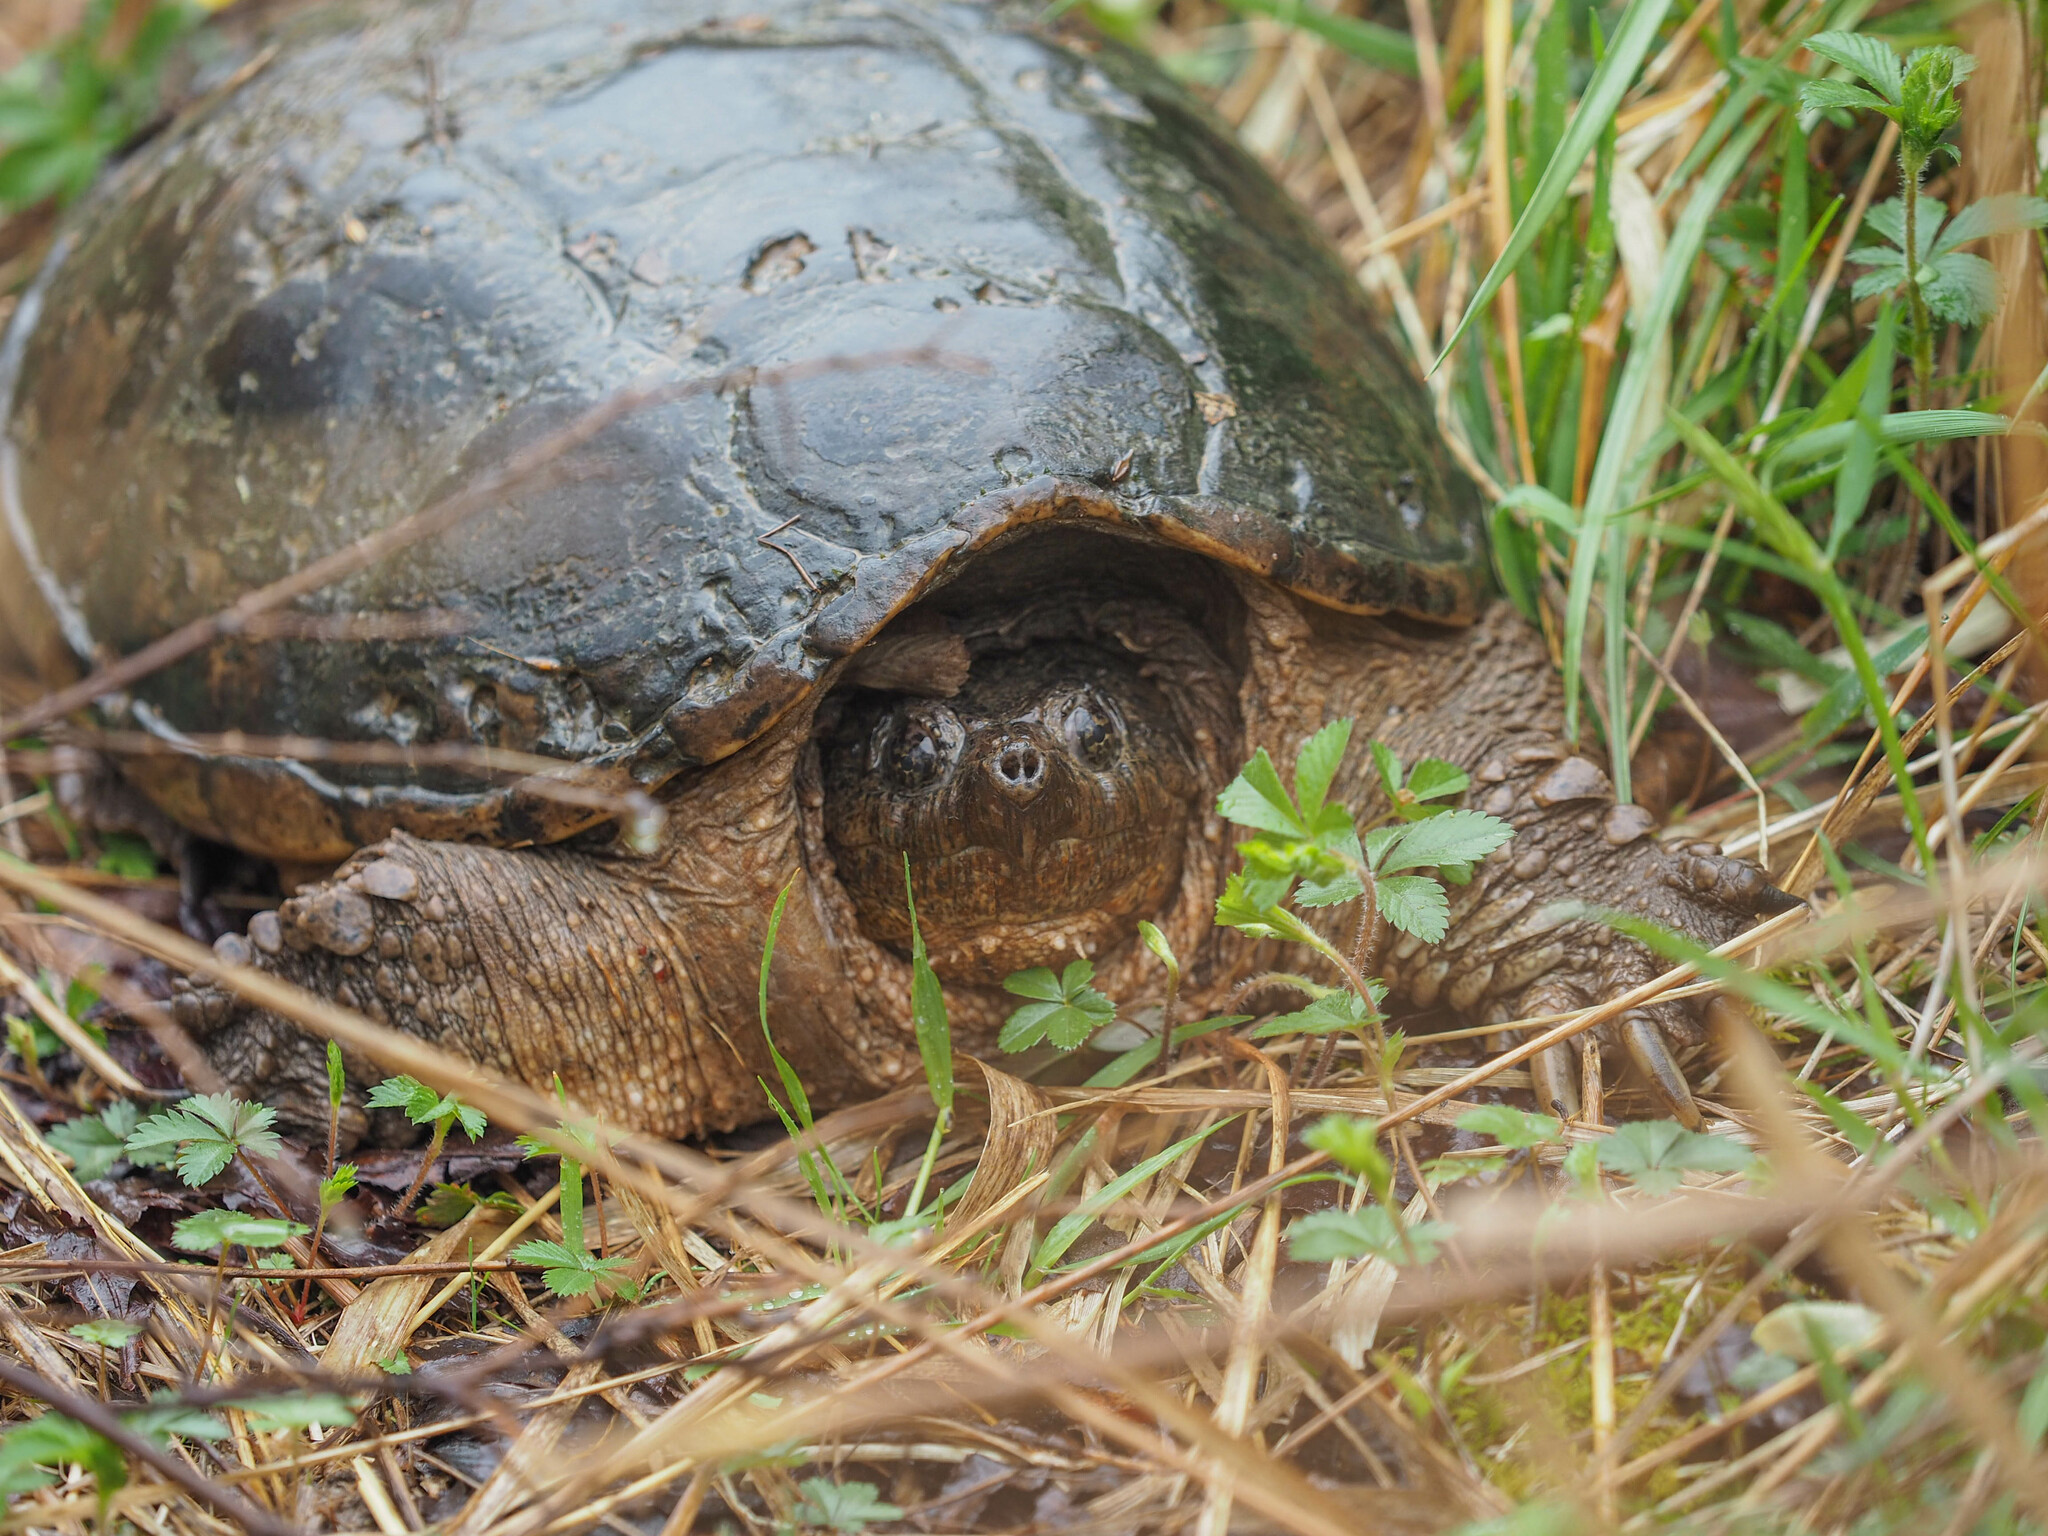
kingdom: Animalia
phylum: Chordata
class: Testudines
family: Chelydridae
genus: Chelydra
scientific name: Chelydra serpentina
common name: Common snapping turtle
